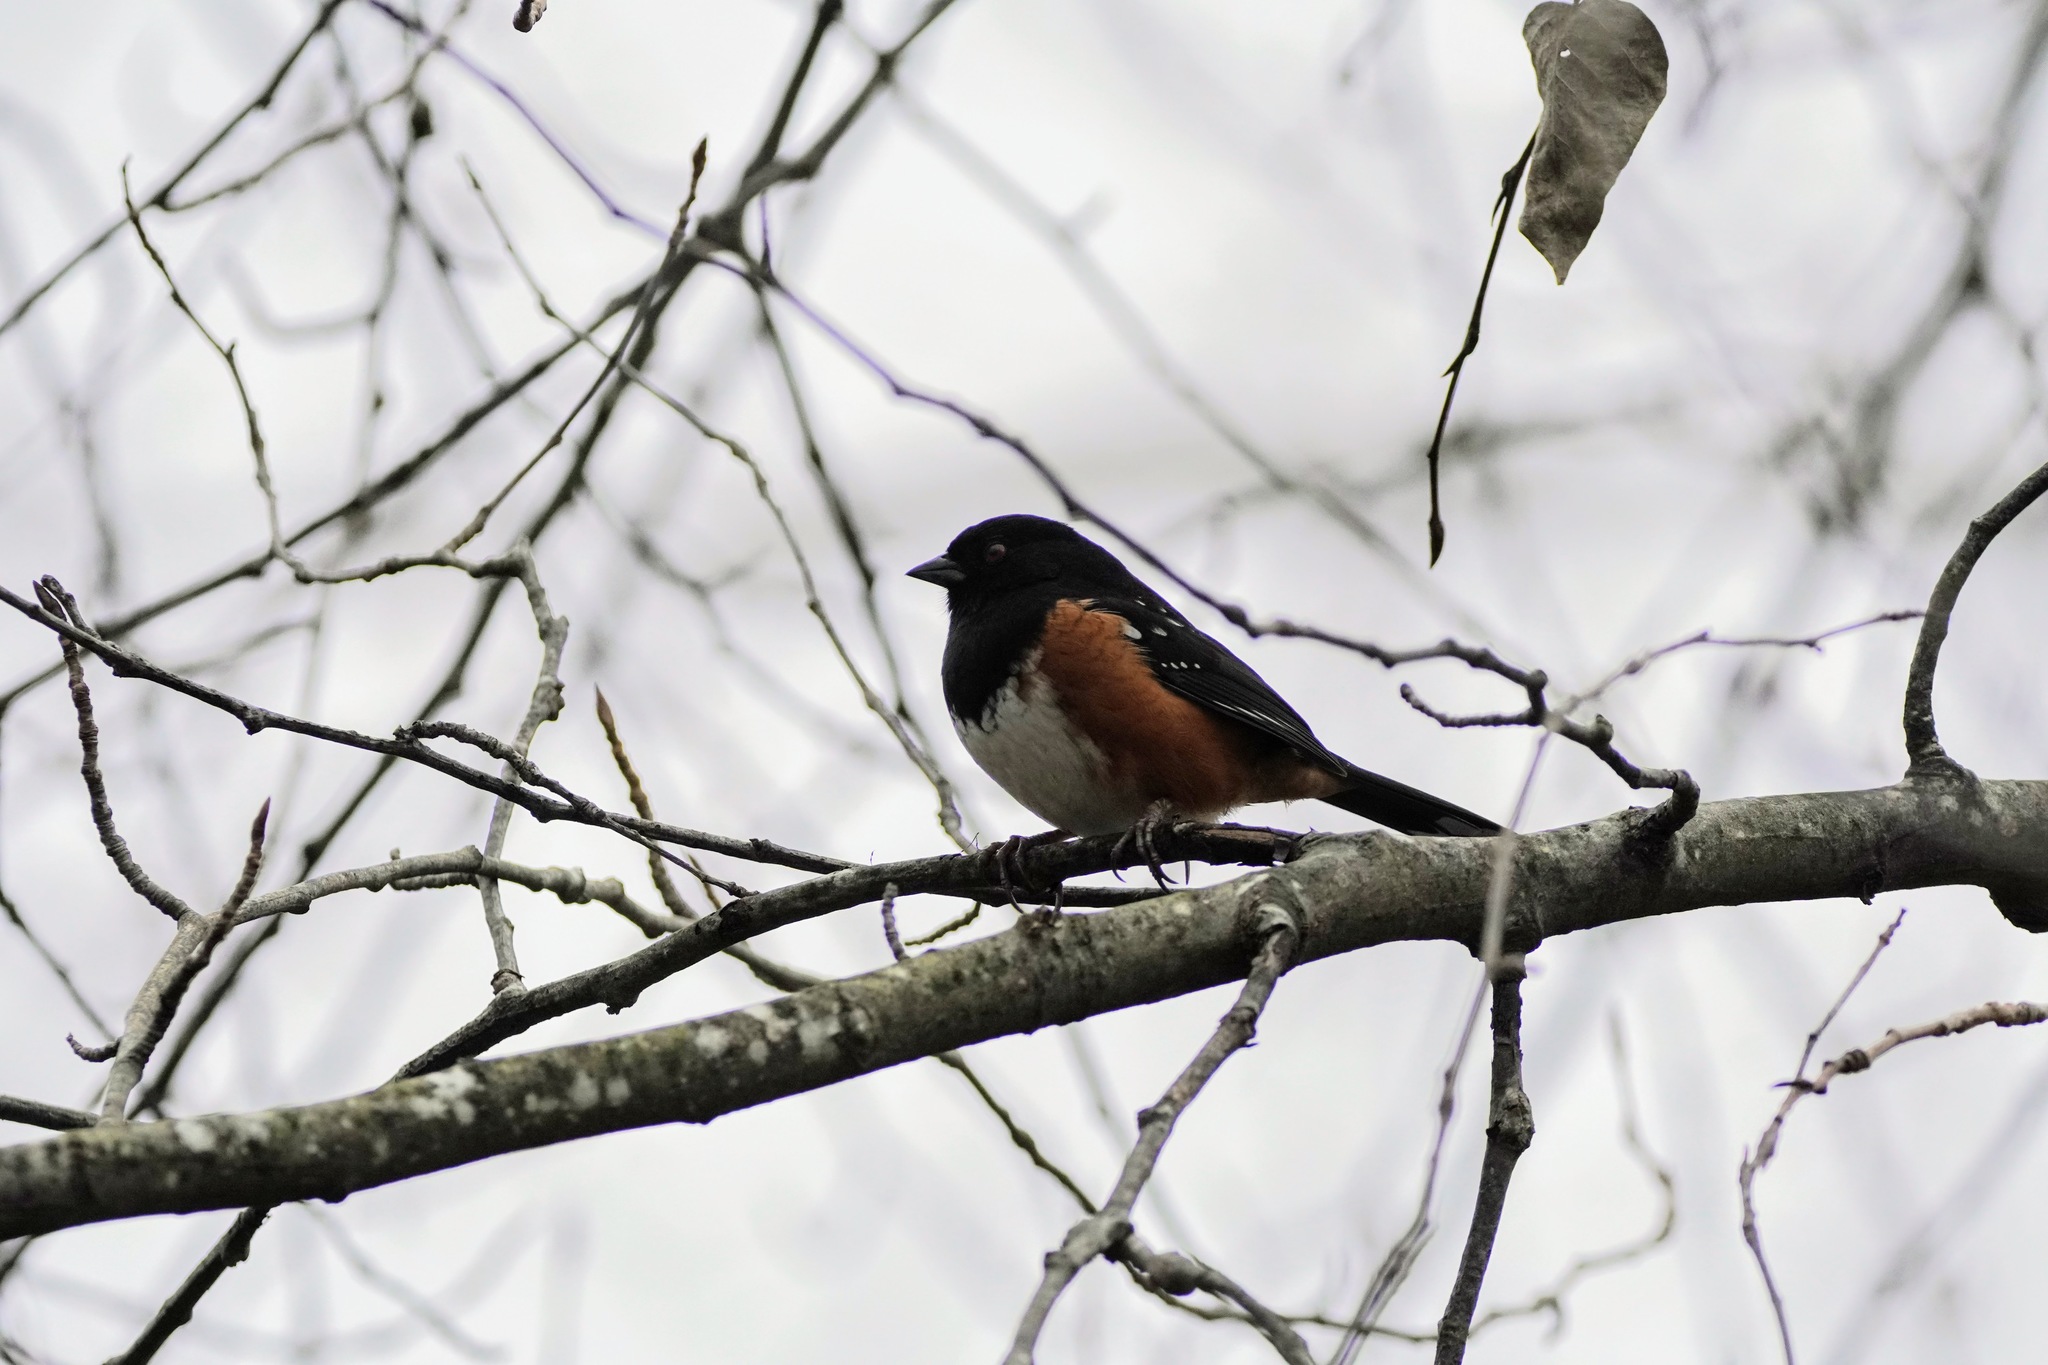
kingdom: Animalia
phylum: Chordata
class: Aves
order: Passeriformes
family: Passerellidae
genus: Pipilo
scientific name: Pipilo maculatus
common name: Spotted towhee
